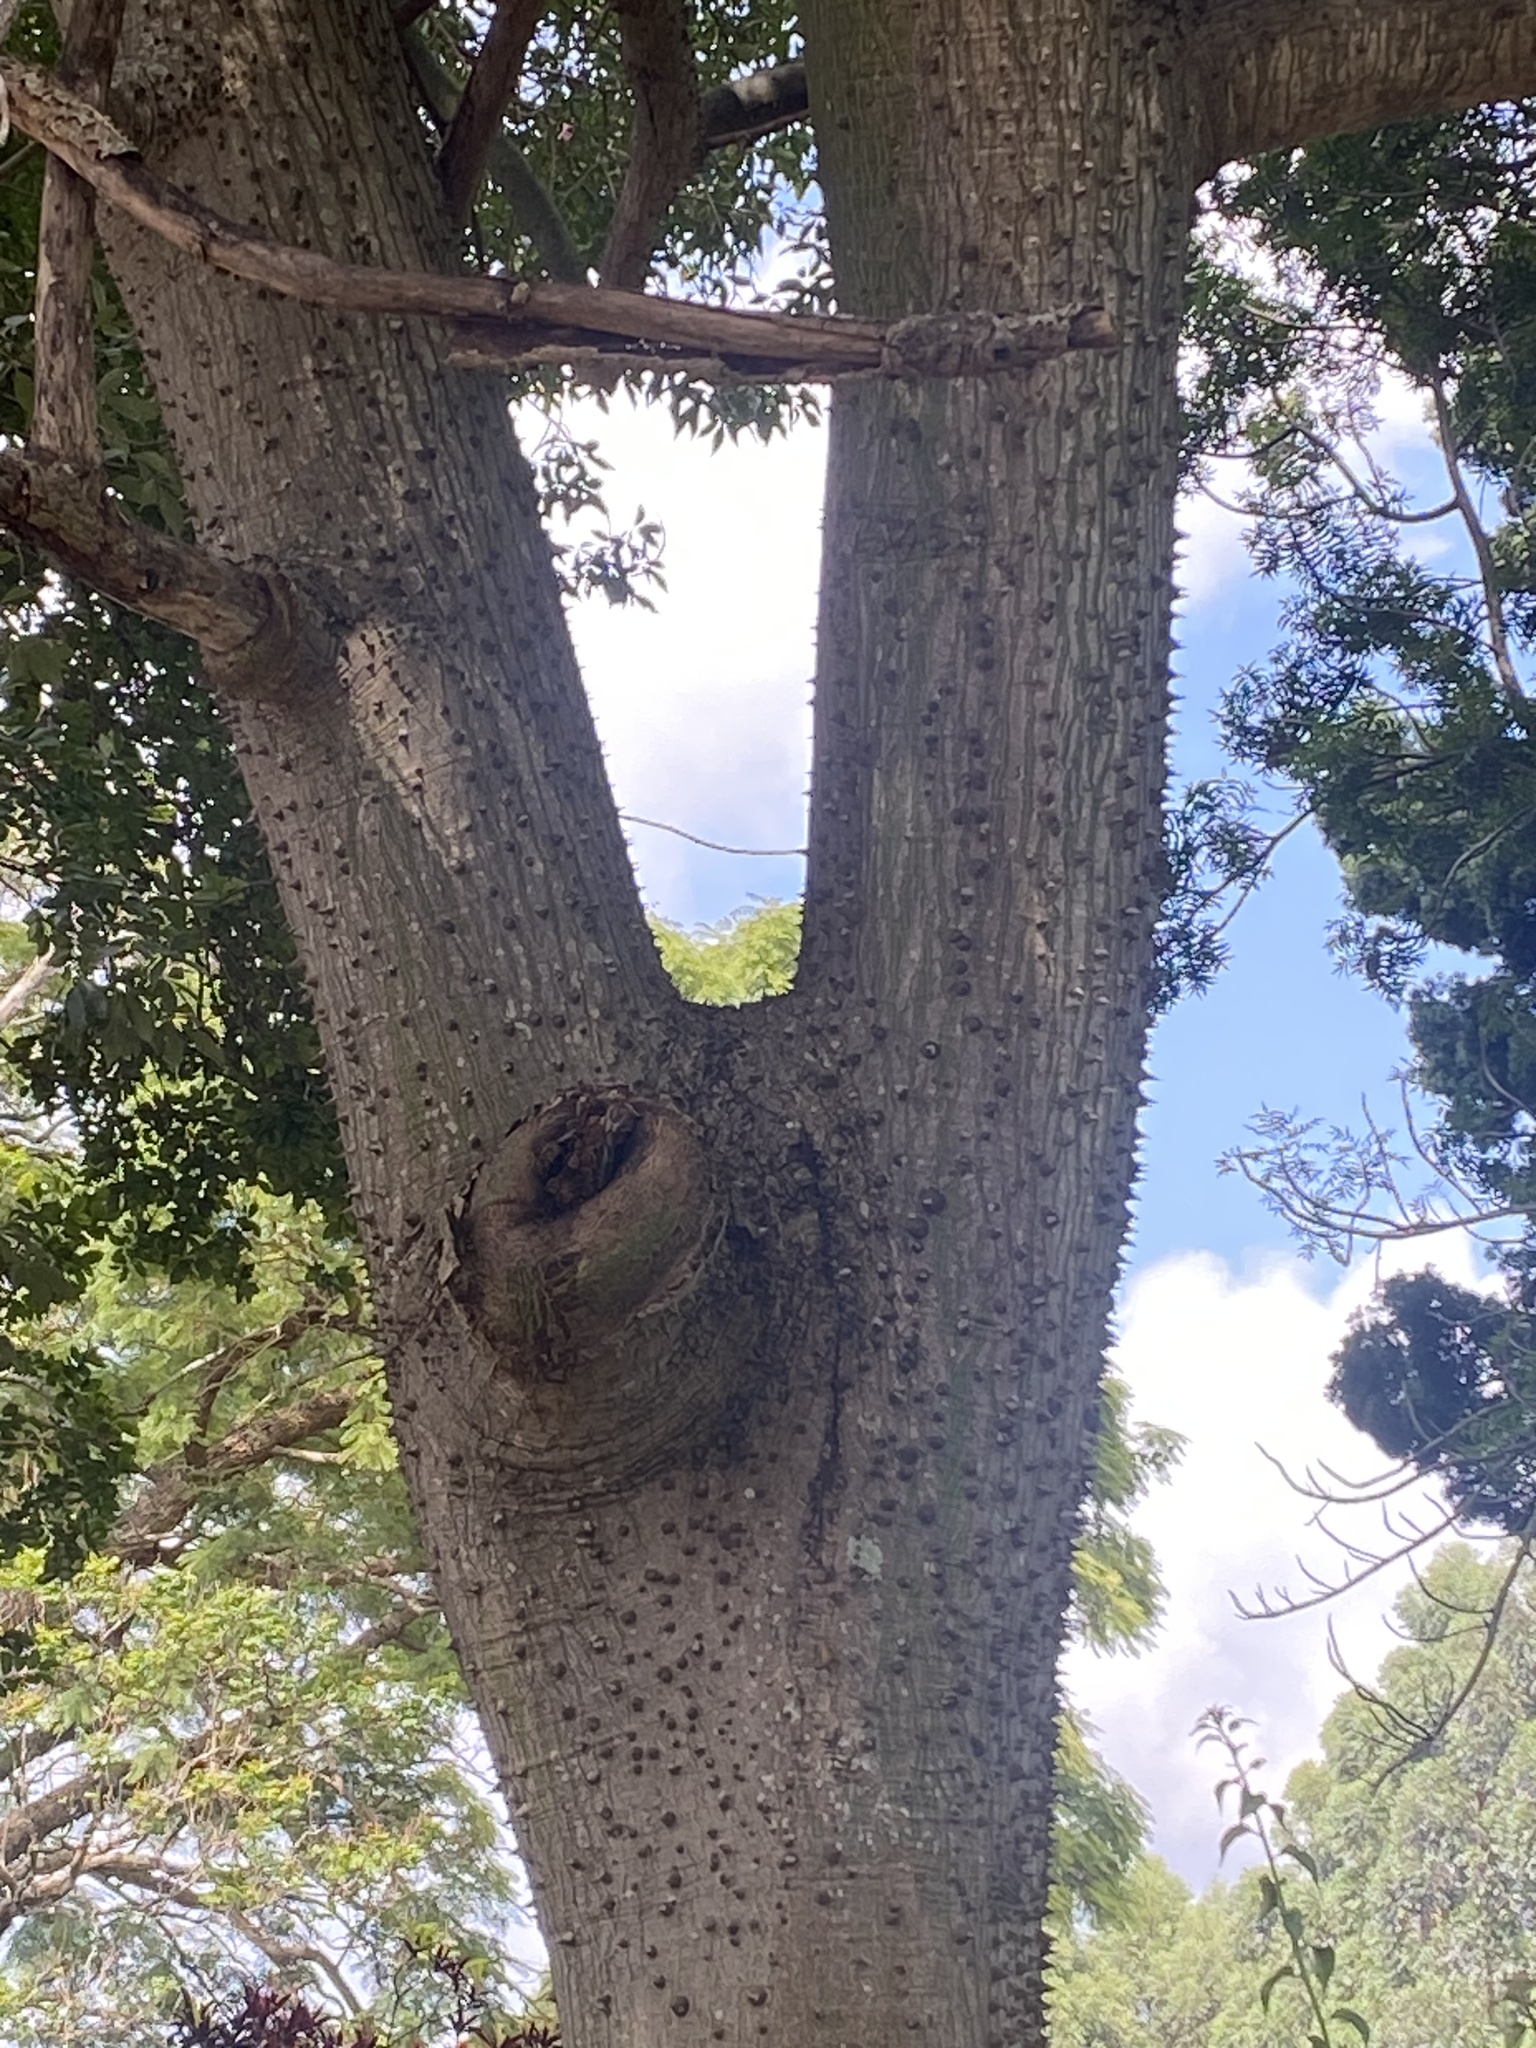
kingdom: Plantae
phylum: Tracheophyta
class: Magnoliopsida
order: Malvales
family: Malvaceae
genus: Ceiba
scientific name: Ceiba pubiflora
